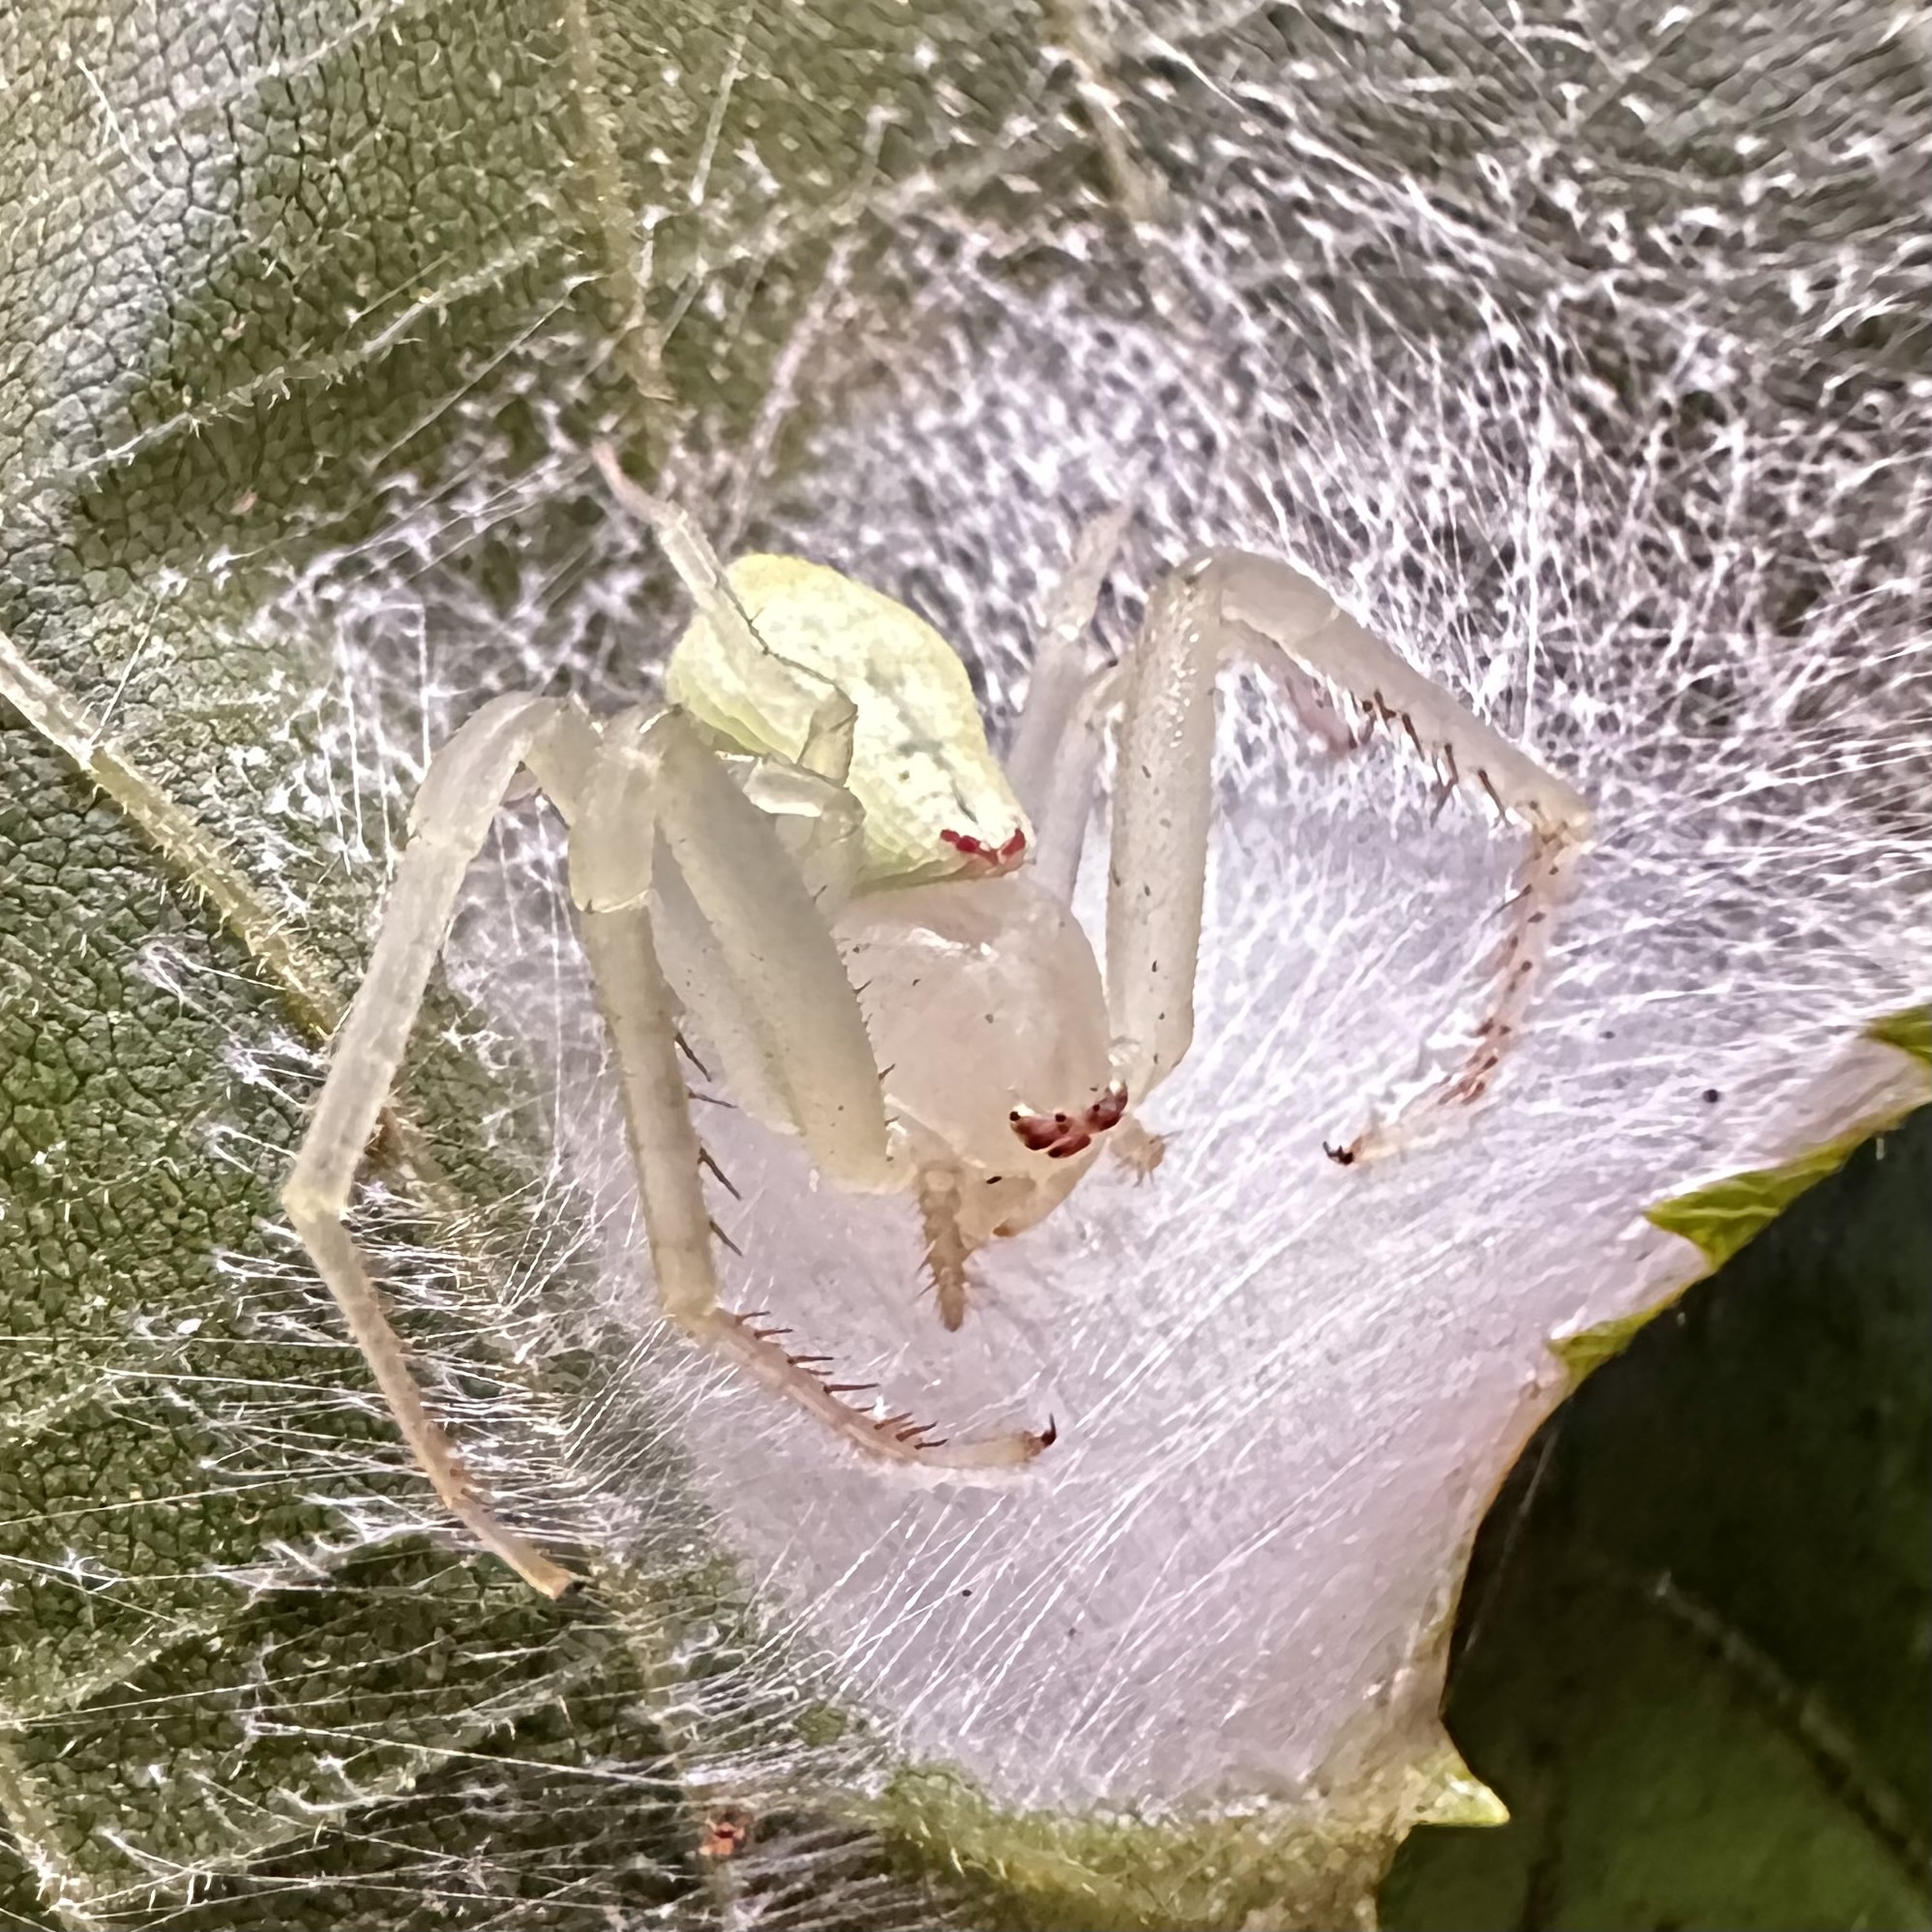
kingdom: Animalia
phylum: Arthropoda
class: Arachnida
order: Araneae
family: Thomisidae
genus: Misumessus
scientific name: Misumessus oblongus
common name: American green crab spider
